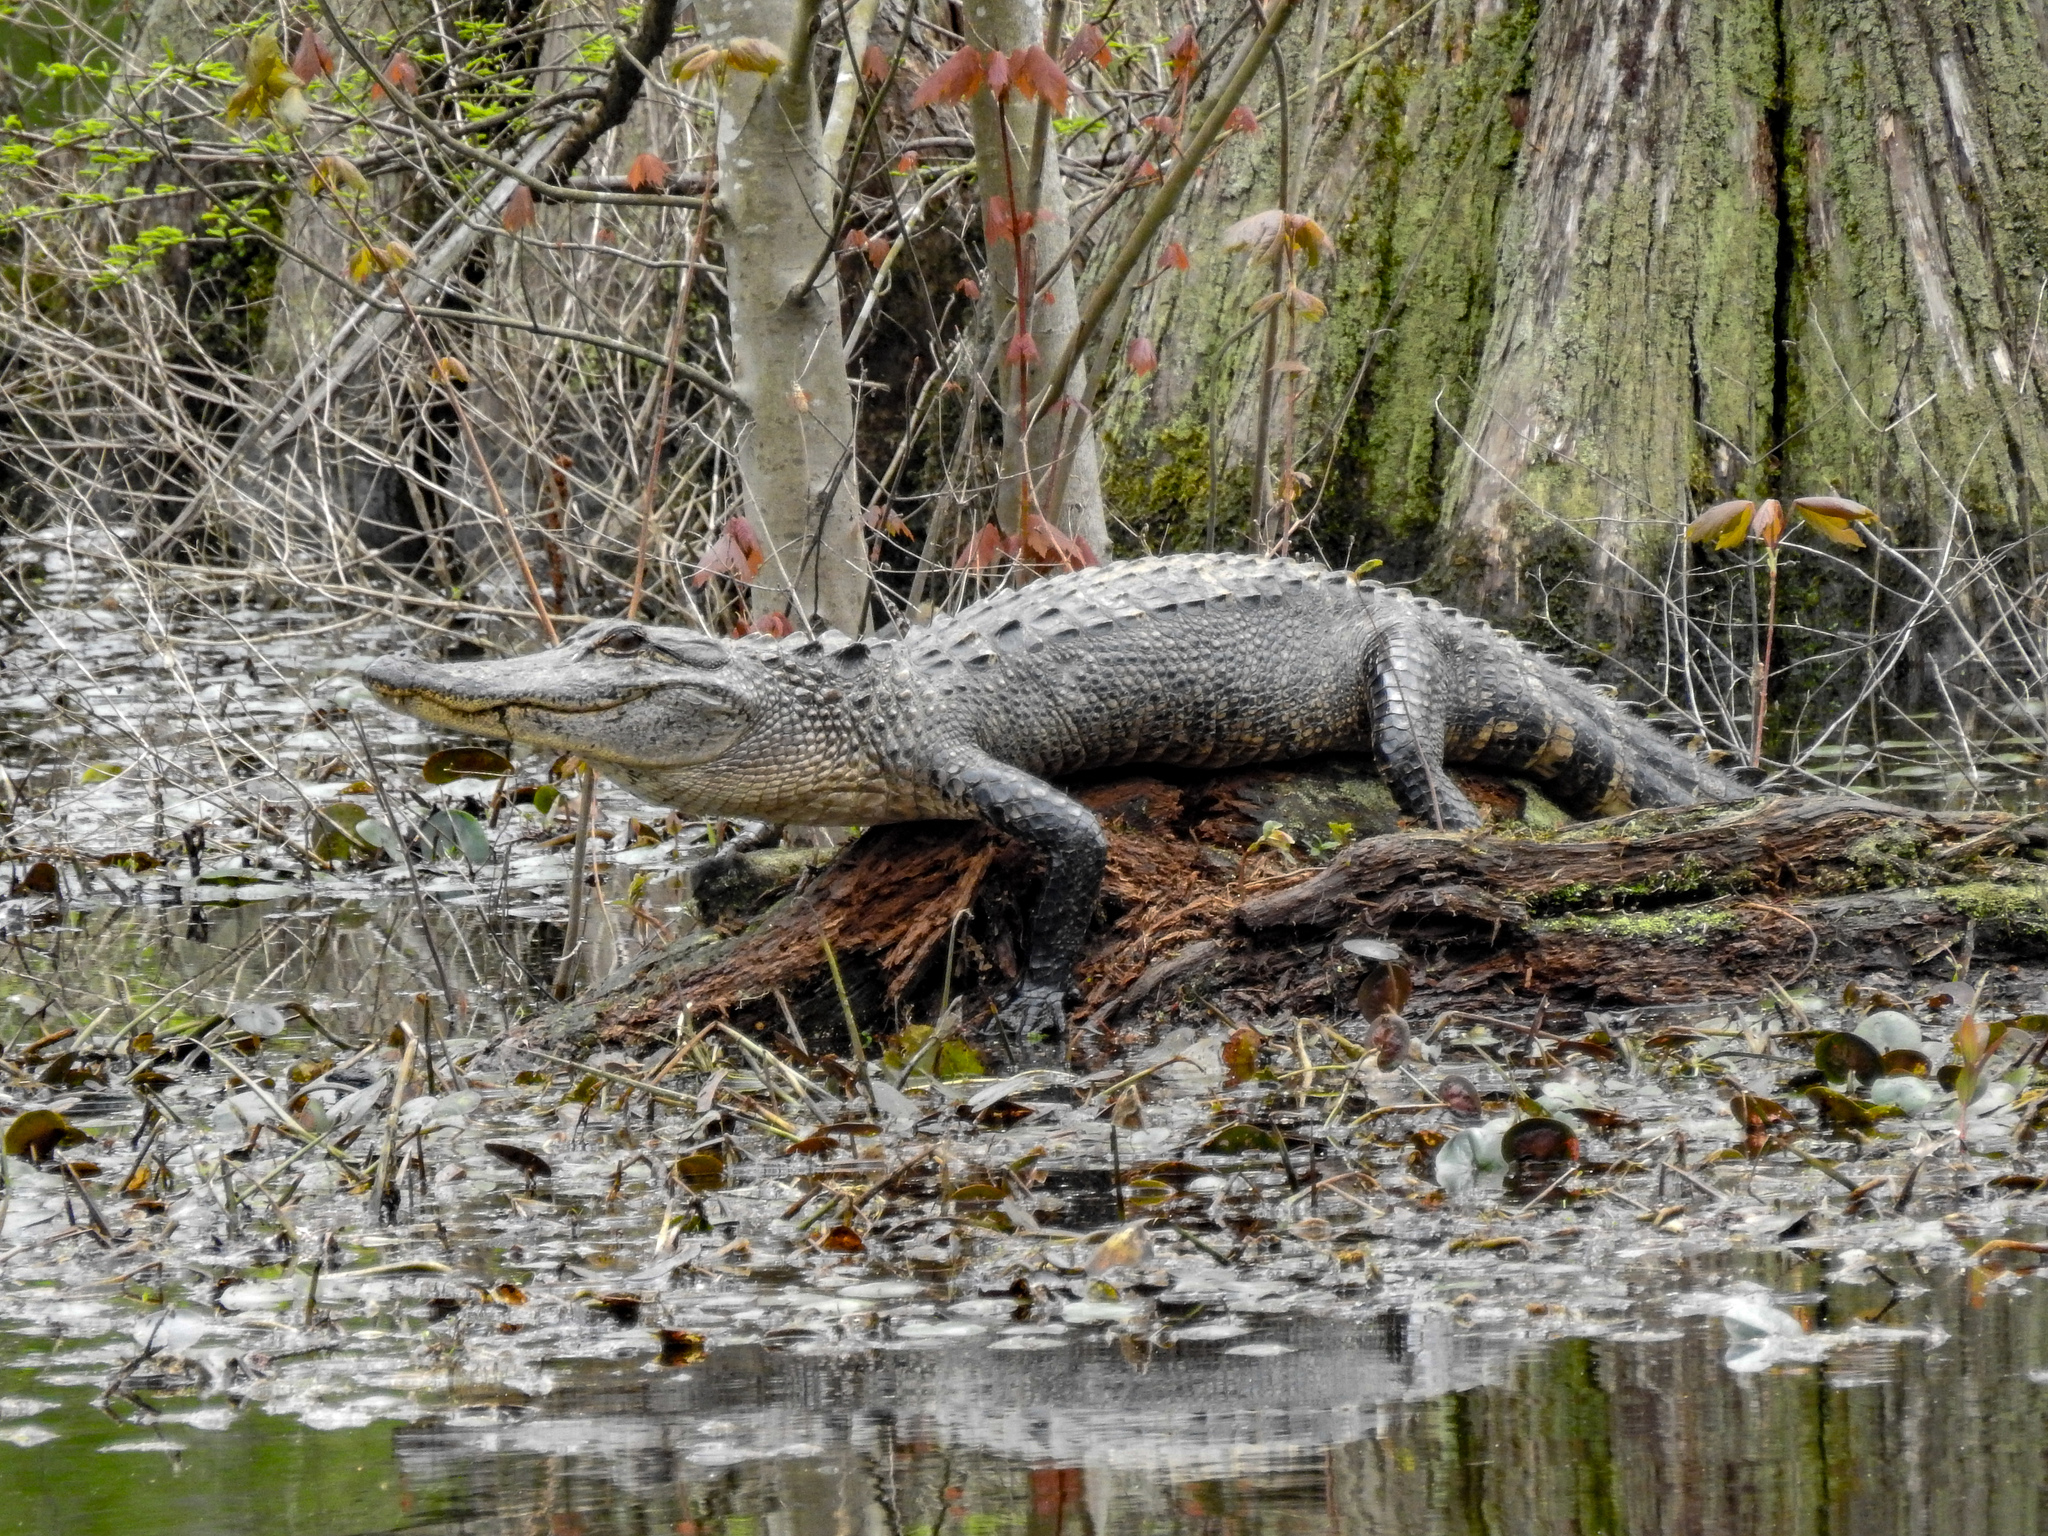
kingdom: Animalia
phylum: Chordata
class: Crocodylia
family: Alligatoridae
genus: Alligator
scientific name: Alligator mississippiensis
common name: American alligator
